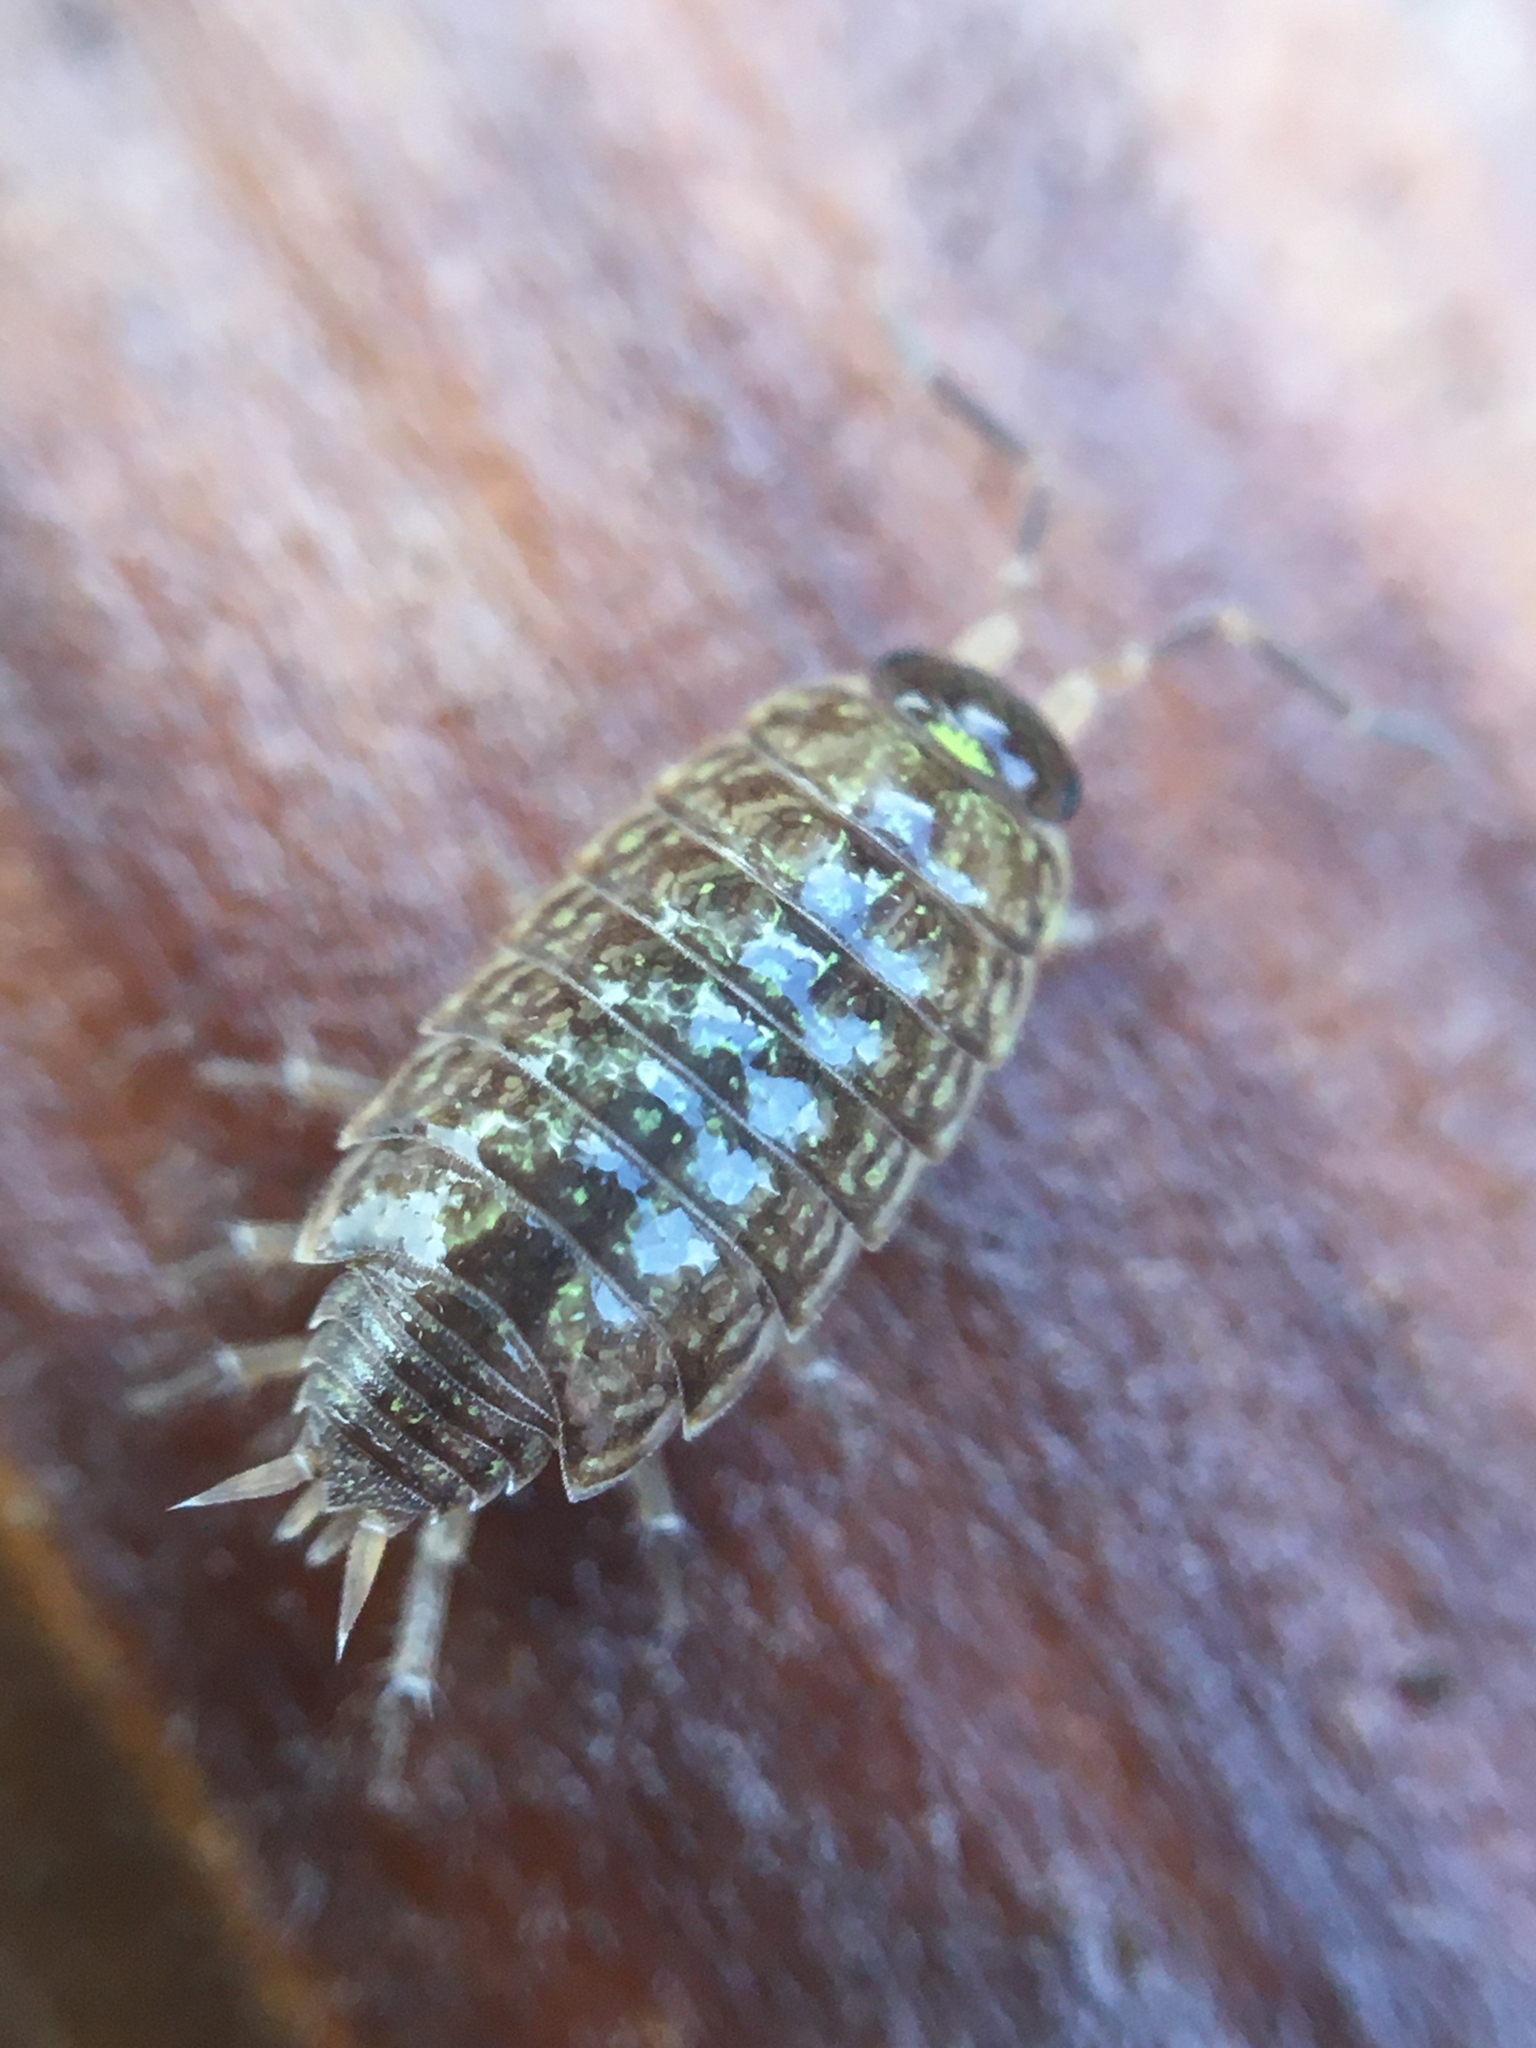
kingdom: Animalia
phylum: Arthropoda
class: Malacostraca
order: Isopoda
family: Philosciidae
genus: Philoscia
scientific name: Philoscia muscorum
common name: Common striped woodlouse
